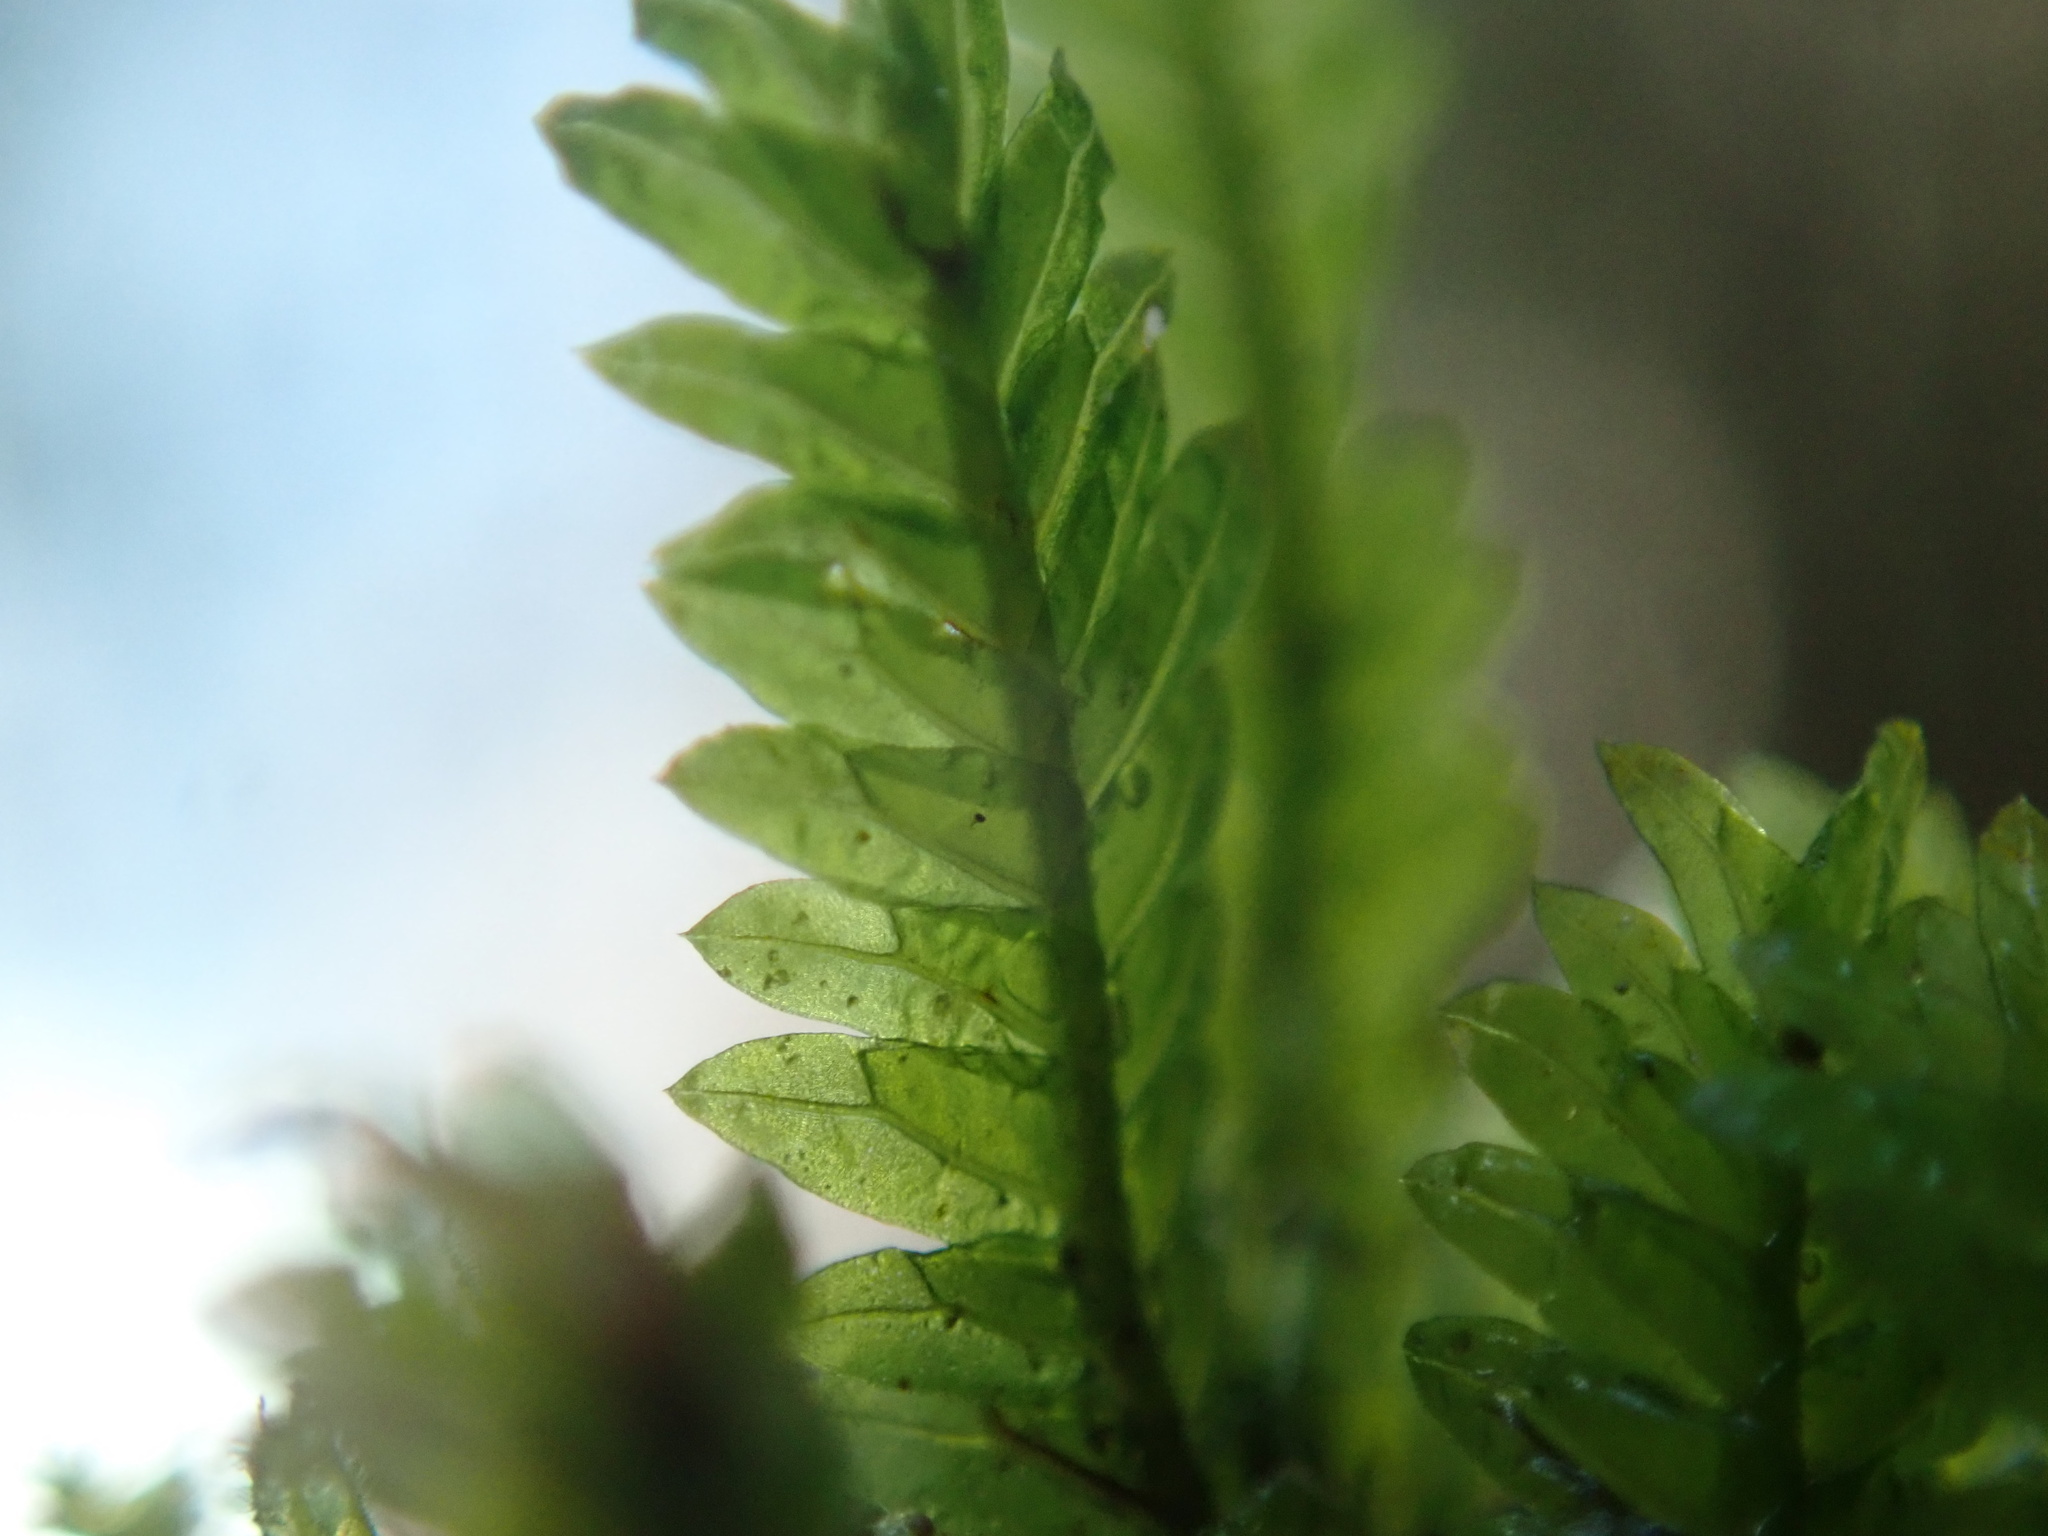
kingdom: Plantae
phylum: Bryophyta
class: Bryopsida
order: Dicranales
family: Fissidentaceae
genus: Fissidens
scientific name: Fissidens adianthoides
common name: Maidenhair pocket moss
